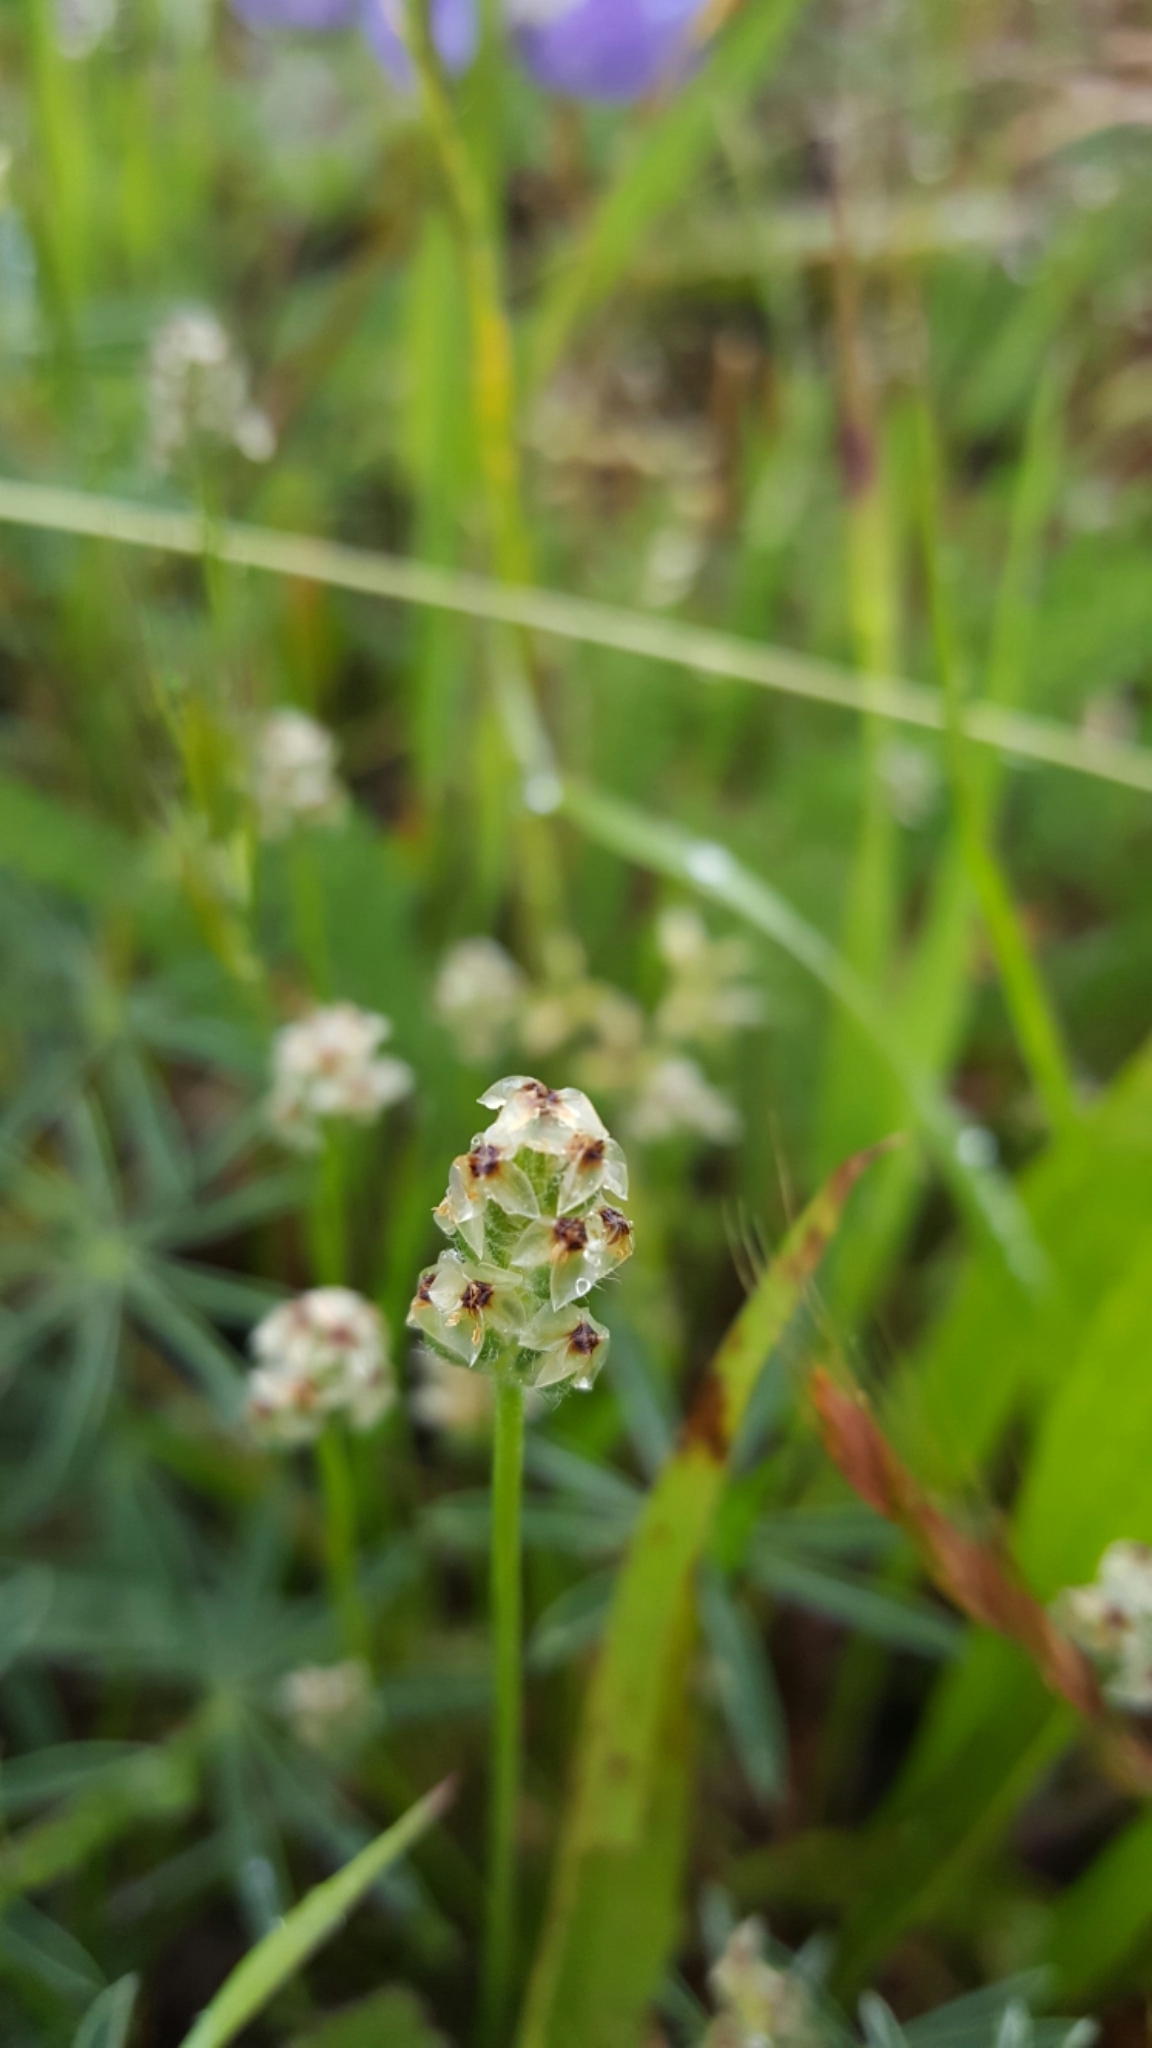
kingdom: Plantae
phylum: Tracheophyta
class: Magnoliopsida
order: Lamiales
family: Plantaginaceae
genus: Plantago
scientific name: Plantago erecta
